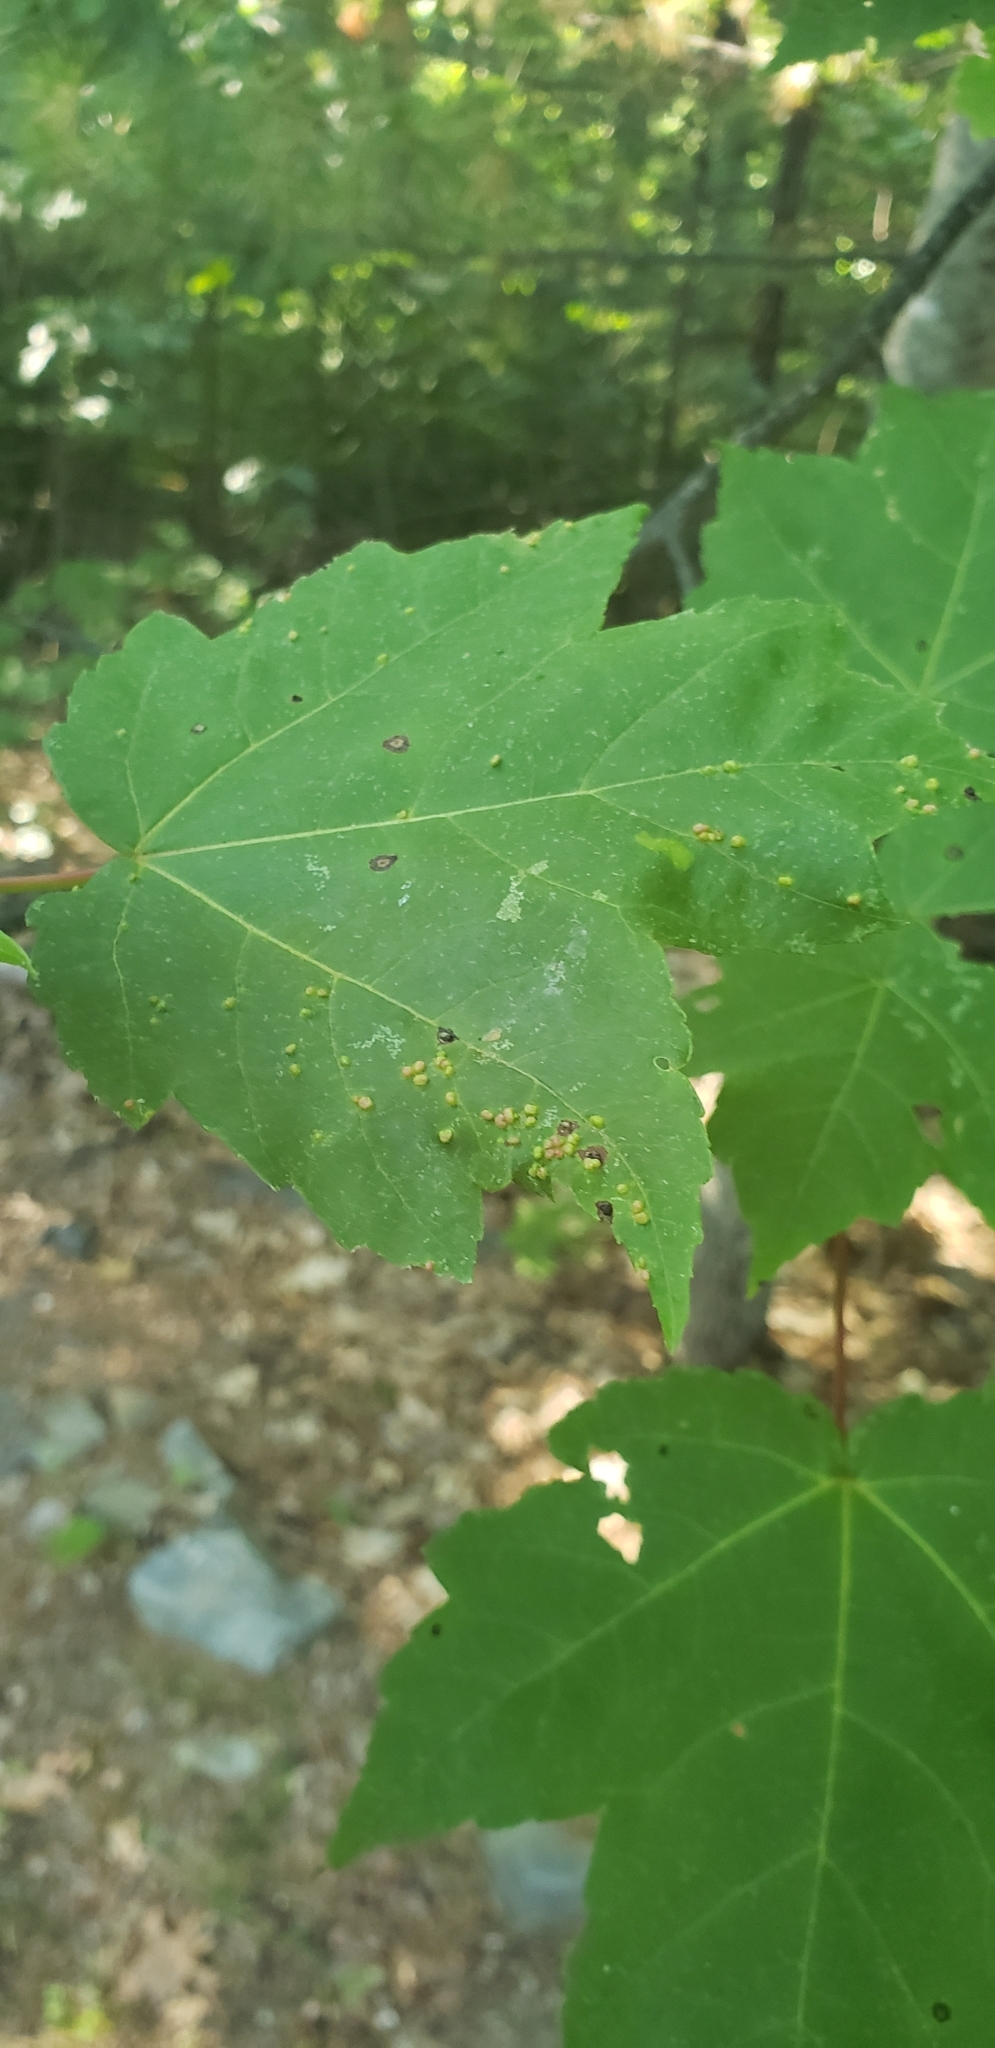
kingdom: Animalia
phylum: Arthropoda
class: Arachnida
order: Trombidiformes
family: Eriophyidae
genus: Vasates
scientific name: Vasates quadripedes
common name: Maple bladder gall mite
